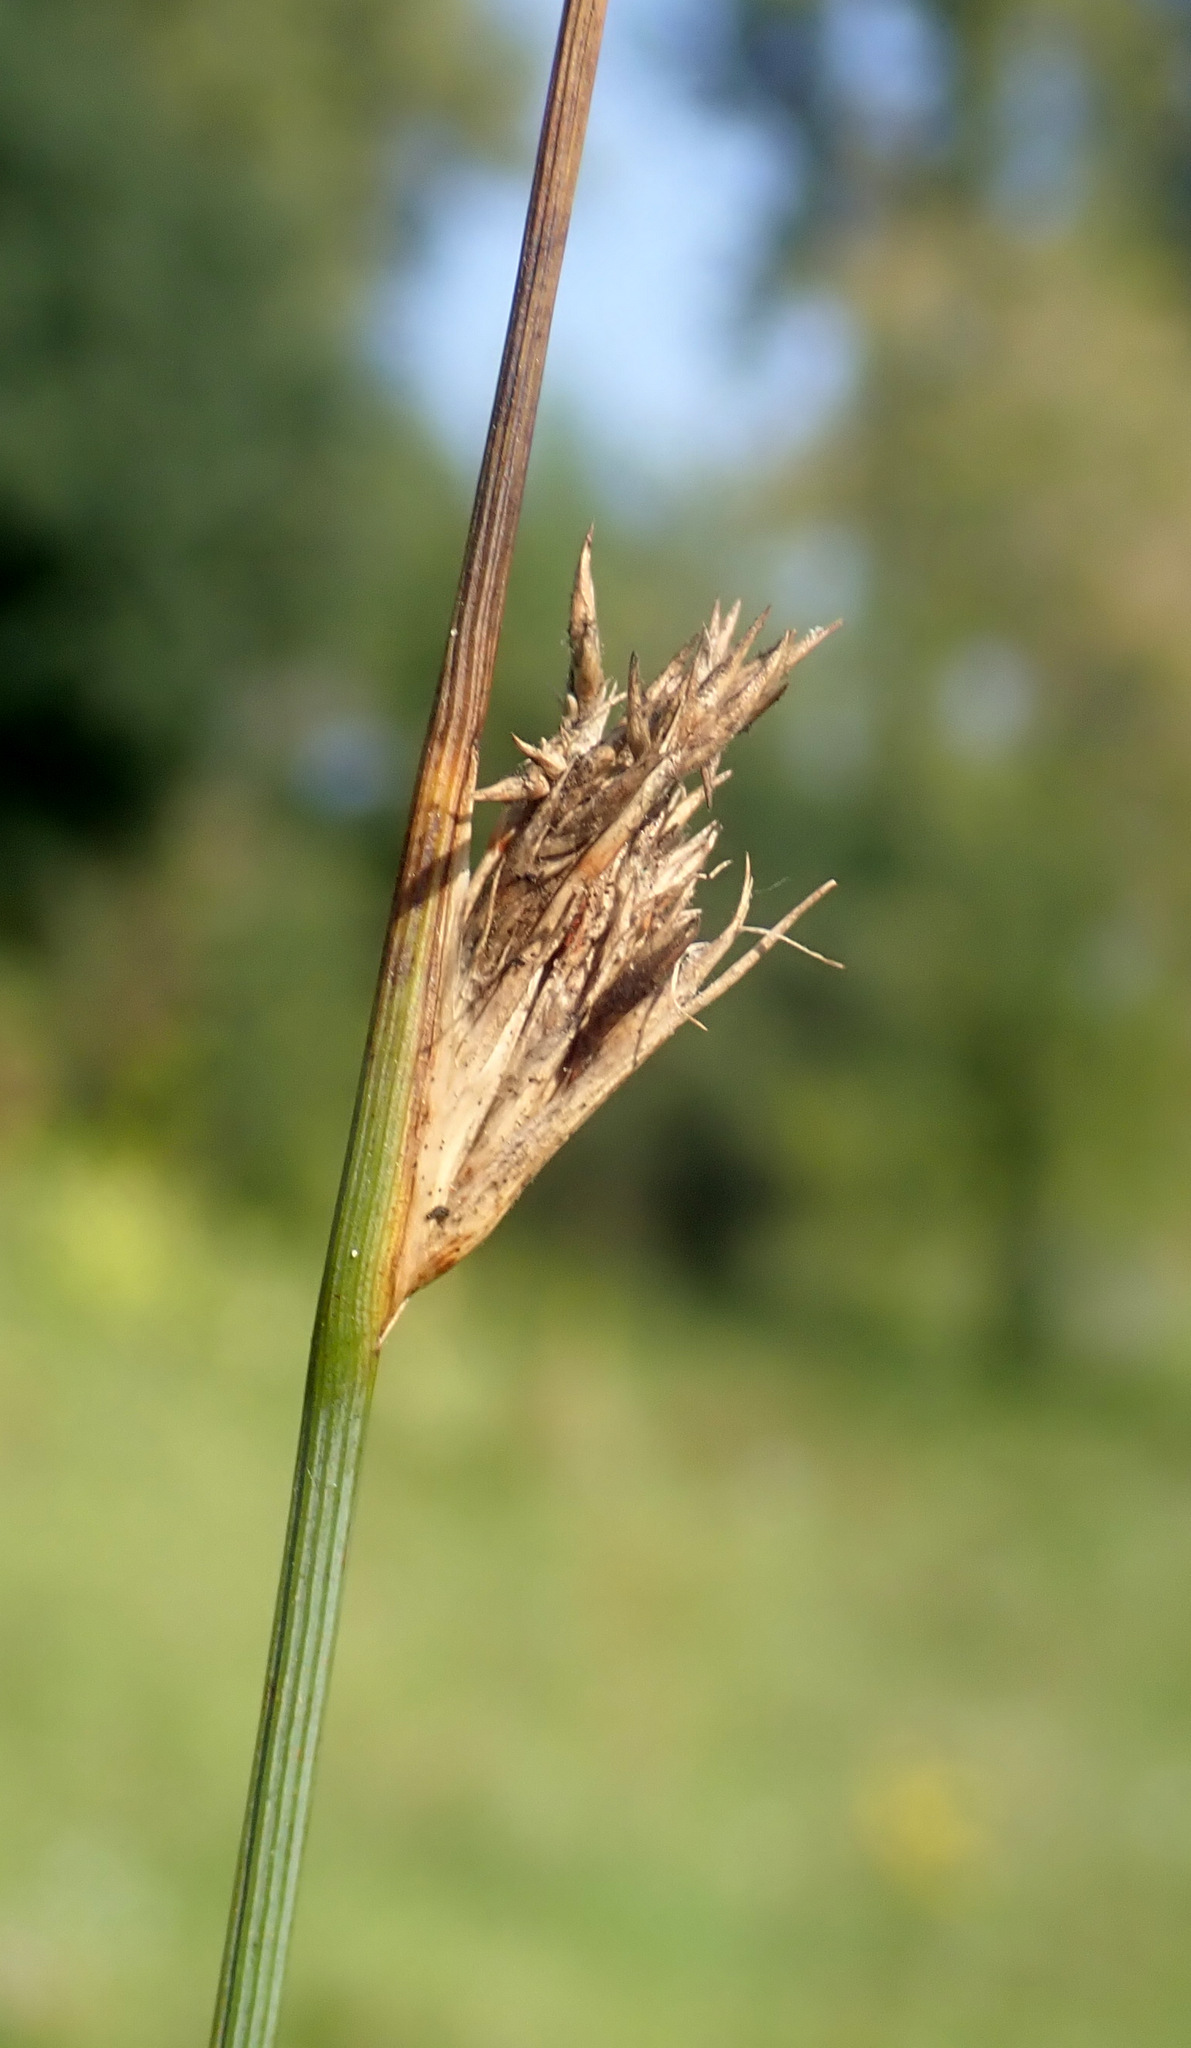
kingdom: Plantae
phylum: Tracheophyta
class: Liliopsida
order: Poales
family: Juncaceae
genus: Juncus
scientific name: Juncus inflexus
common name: Hard rush
